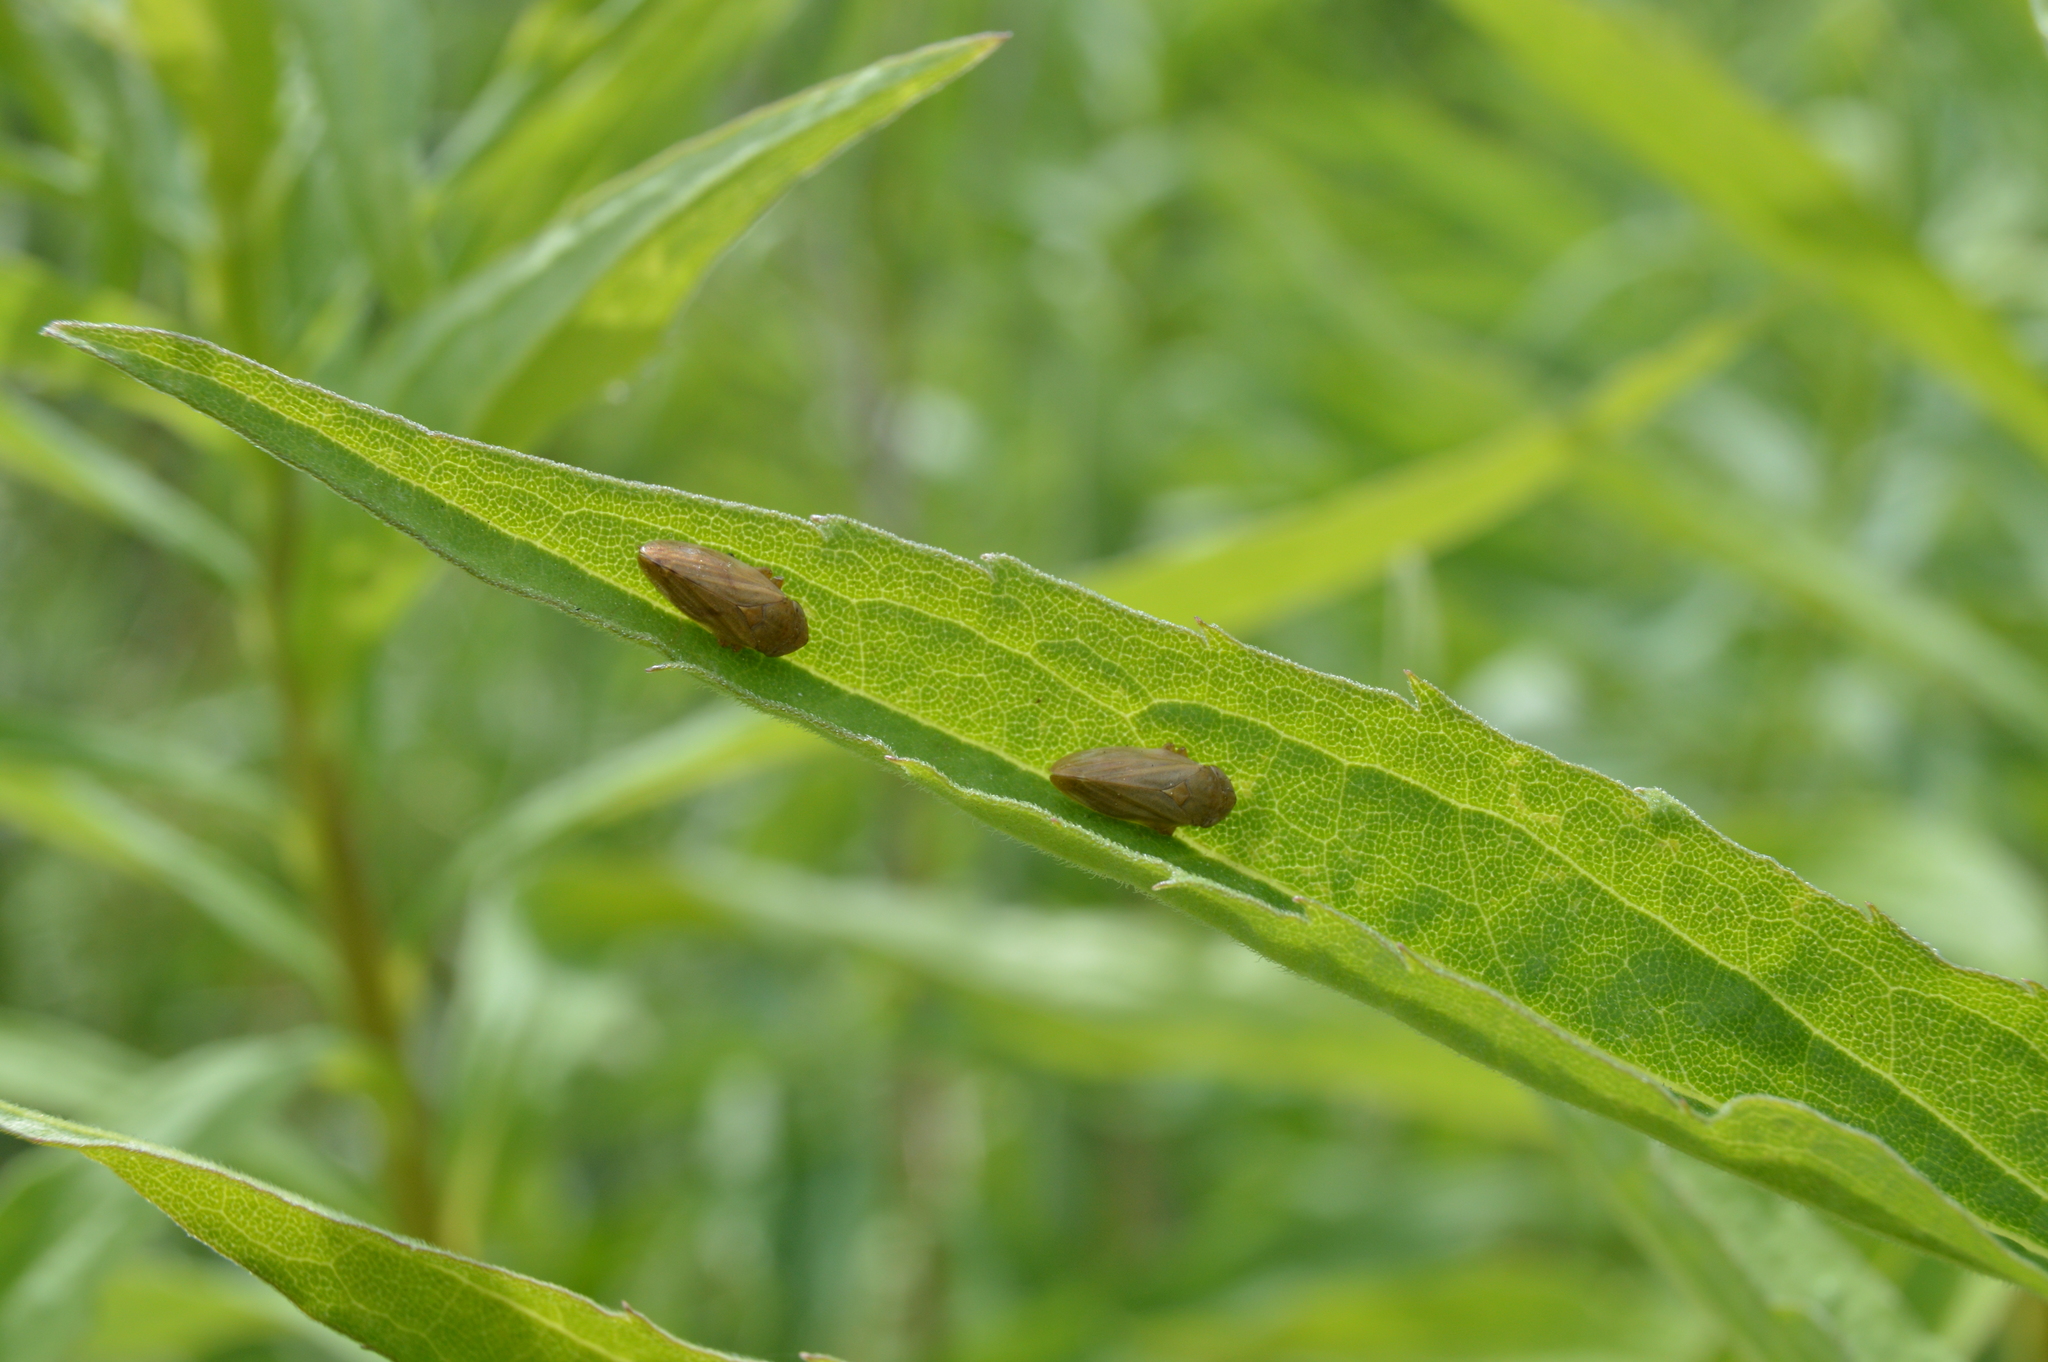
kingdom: Animalia
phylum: Arthropoda
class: Insecta
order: Hemiptera
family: Aphrophoridae
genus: Philaenus
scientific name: Philaenus spumarius
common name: Meadow spittlebug
